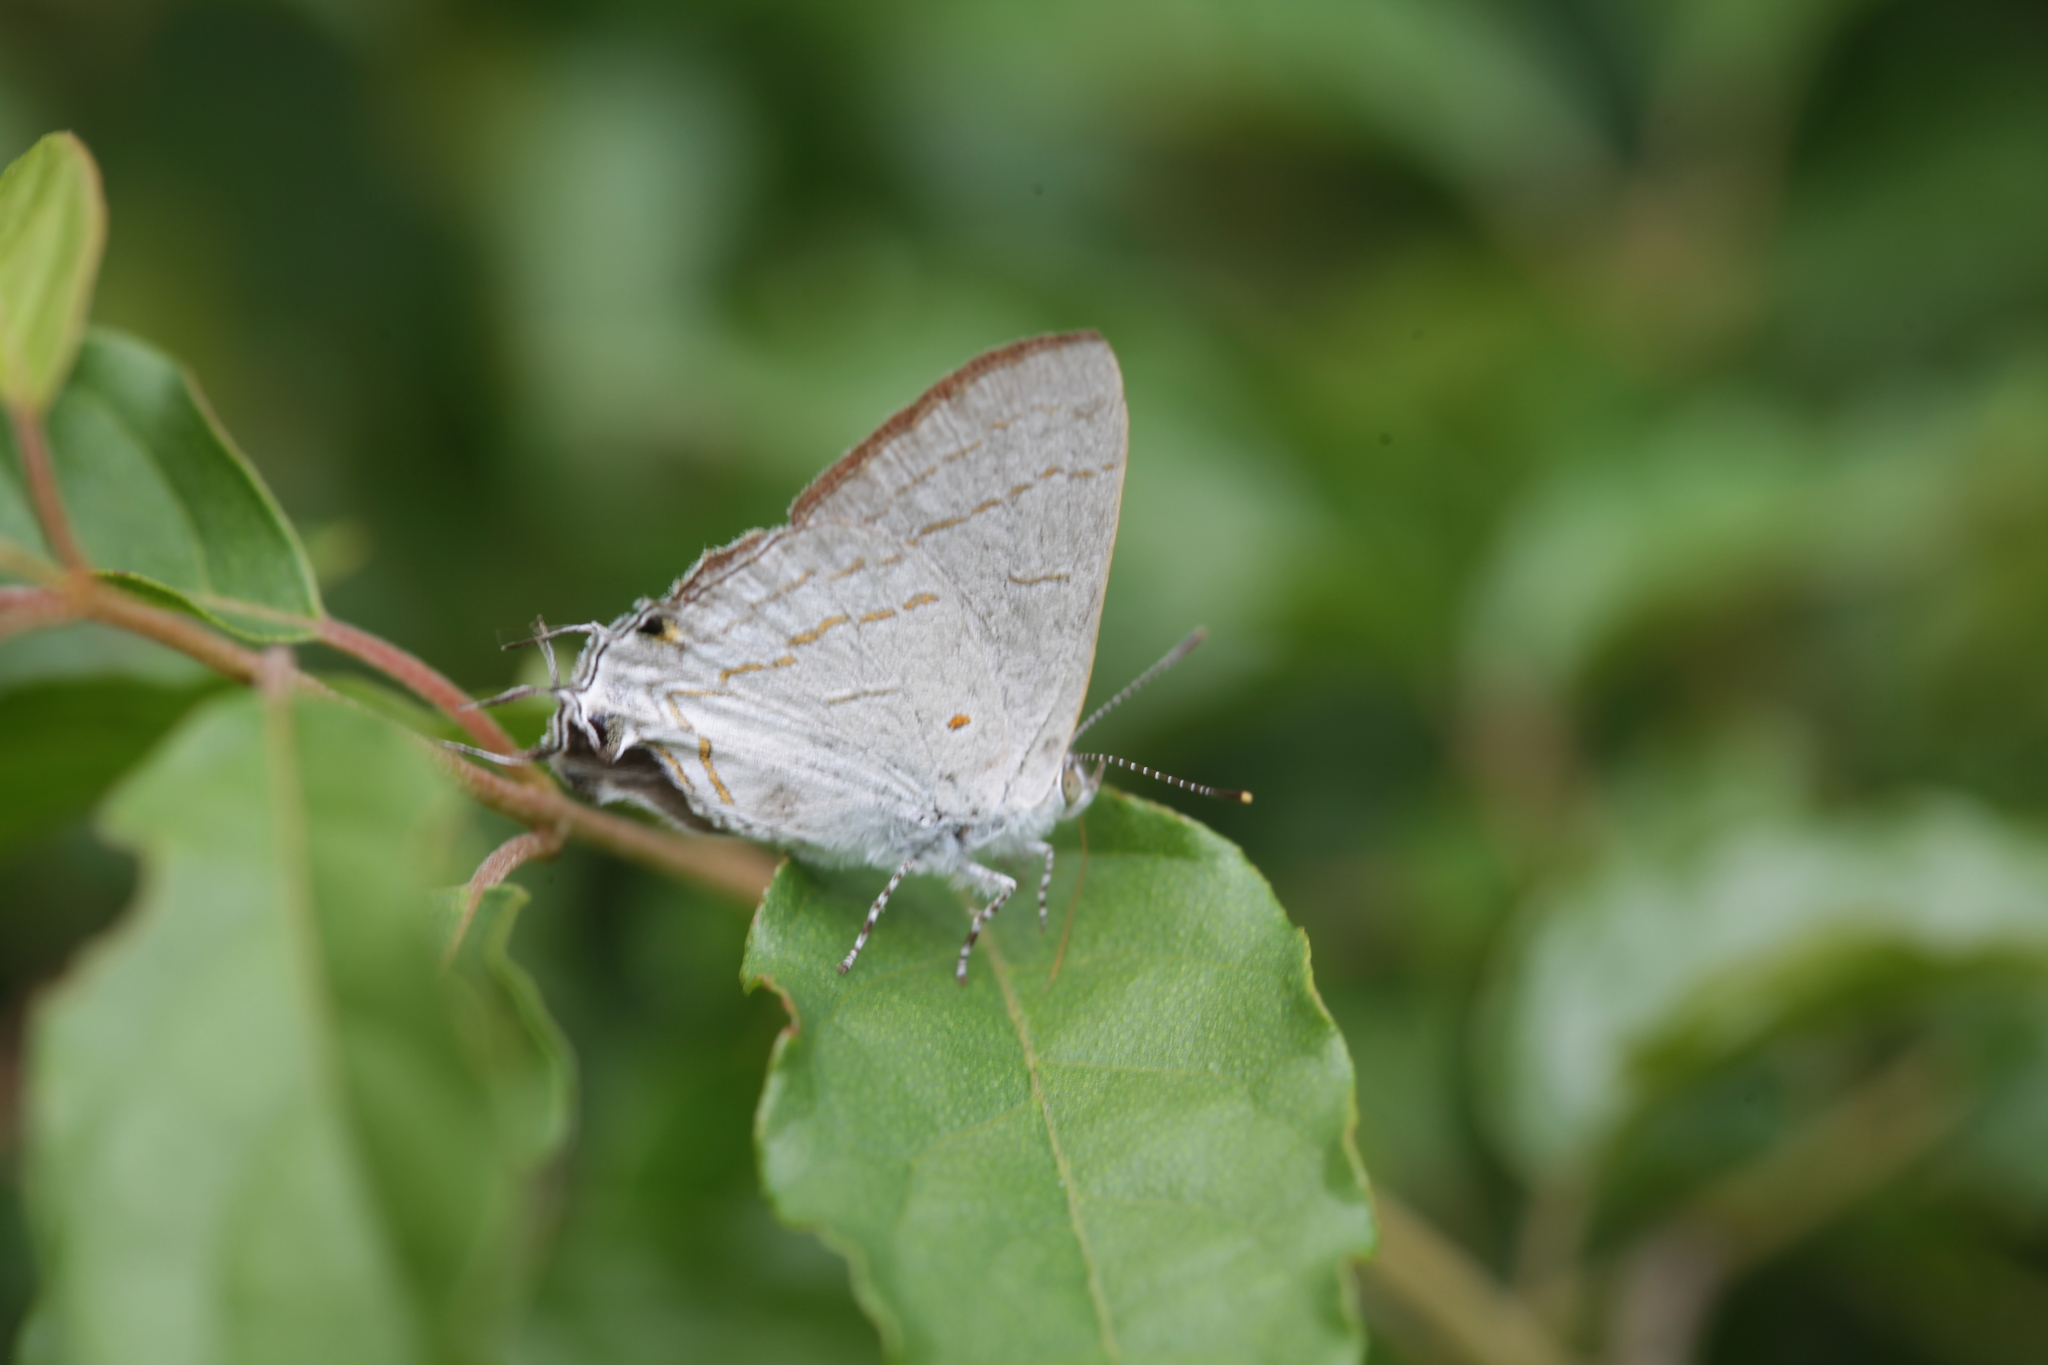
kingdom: Animalia
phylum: Arthropoda
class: Insecta
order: Lepidoptera
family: Lycaenidae
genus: Hypolycaena
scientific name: Hypolycaena philippus
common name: Common hairstreak
